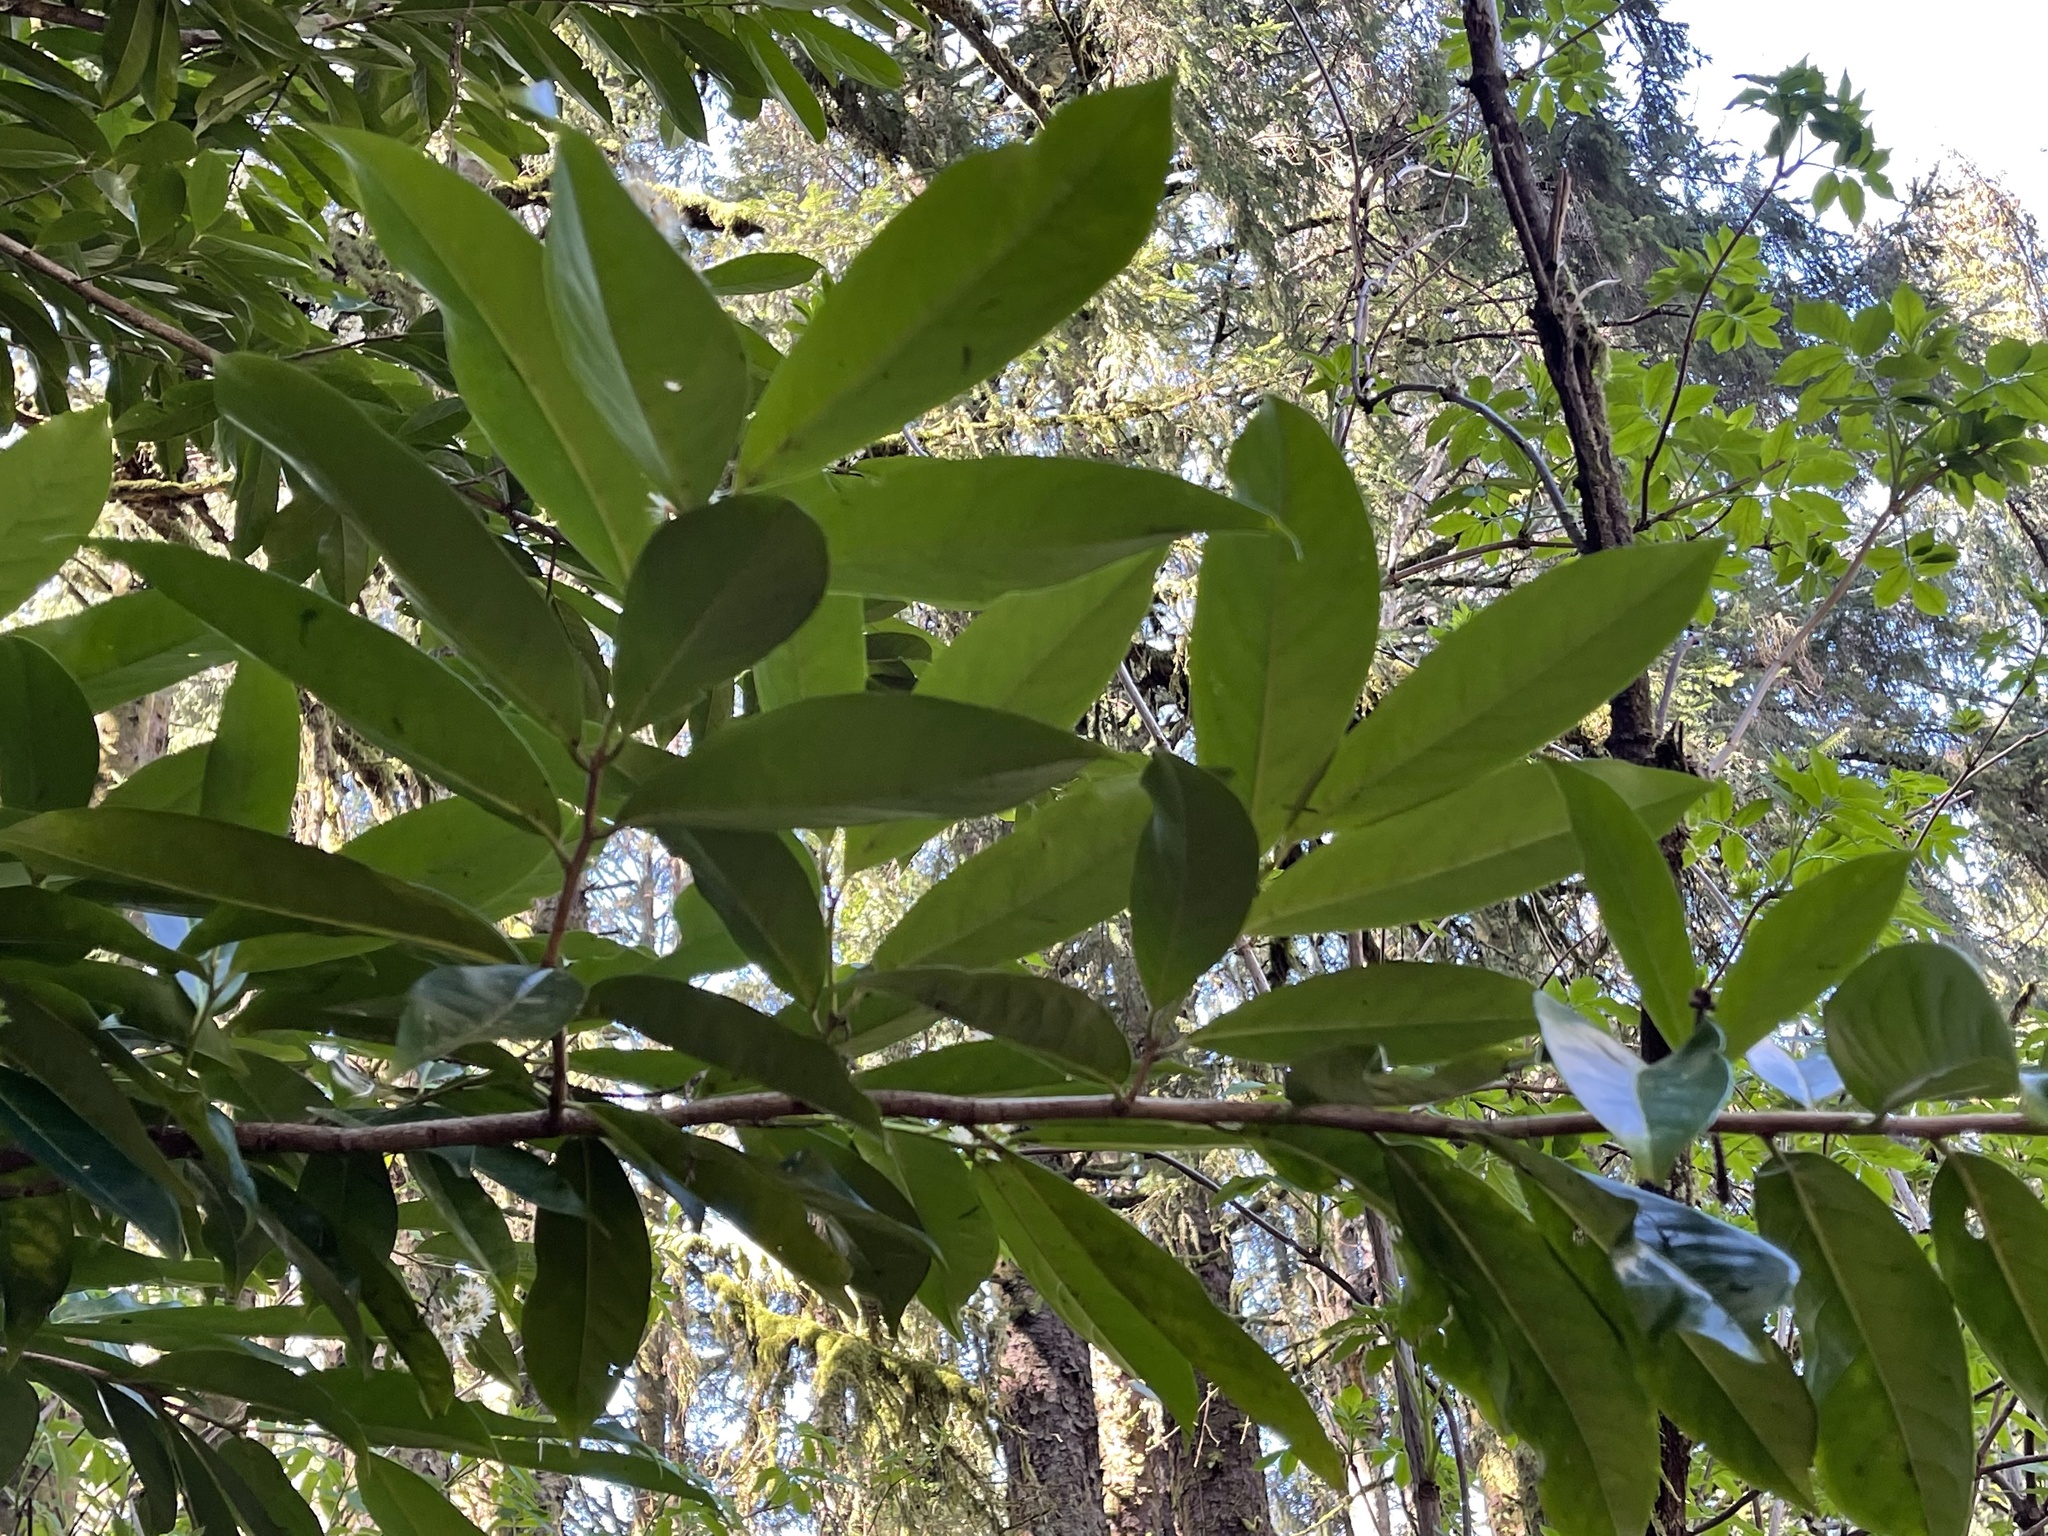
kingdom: Plantae
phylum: Tracheophyta
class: Magnoliopsida
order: Rosales
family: Rosaceae
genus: Prunus
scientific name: Prunus laurocerasus
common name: Cherry laurel
